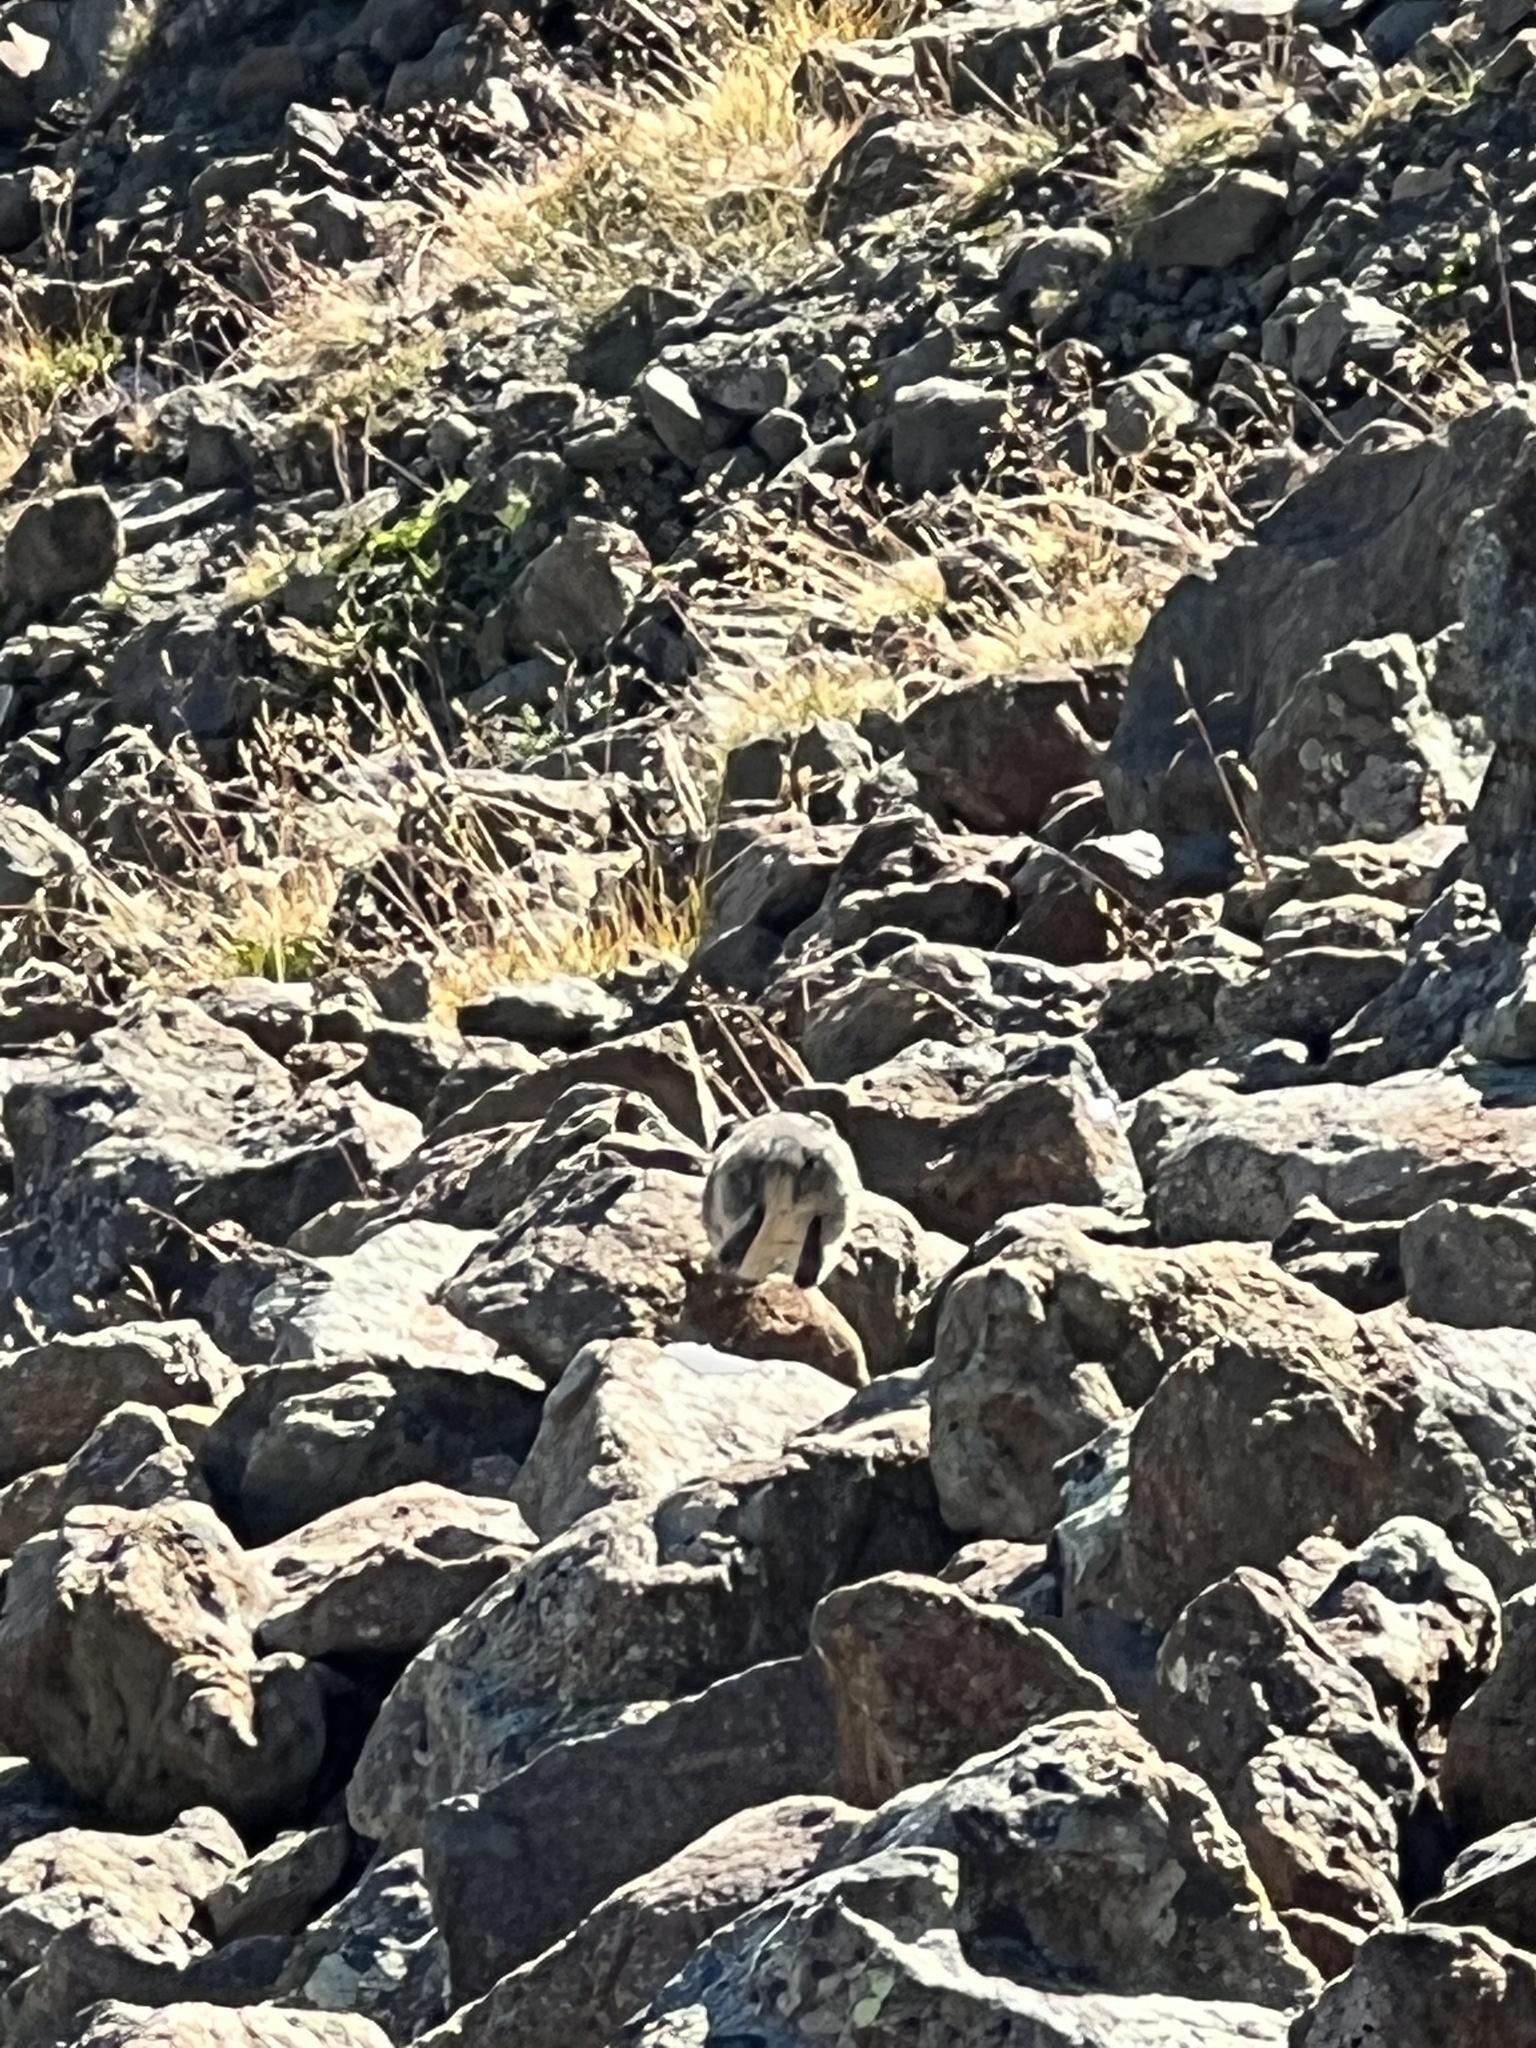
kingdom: Animalia
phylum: Chordata
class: Mammalia
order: Lagomorpha
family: Ochotonidae
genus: Ochotona
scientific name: Ochotona princeps
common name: American pika
